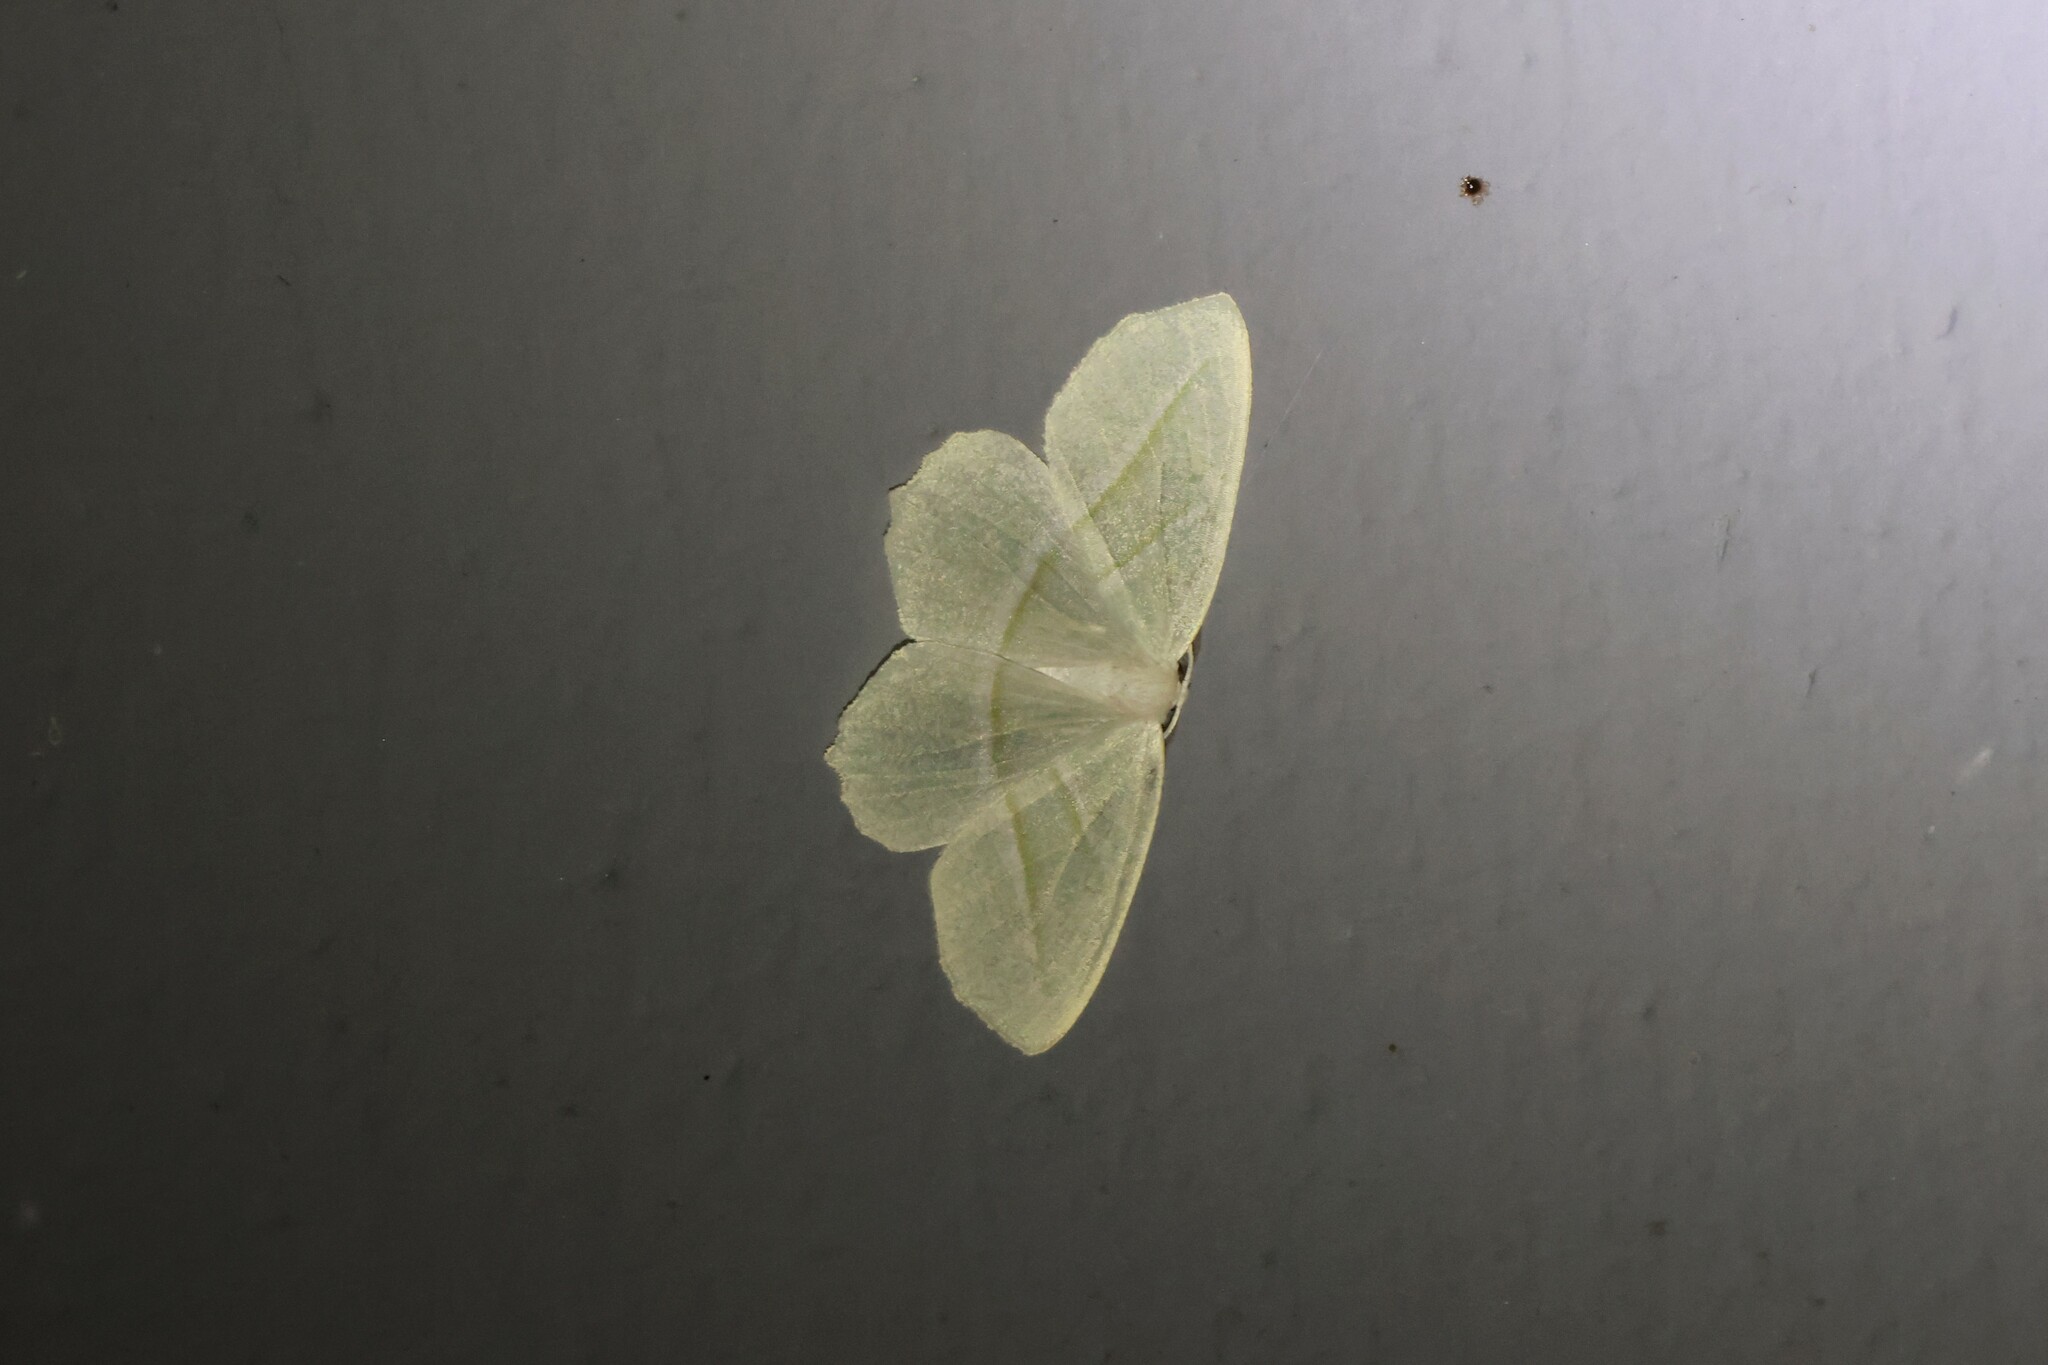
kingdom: Animalia
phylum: Arthropoda
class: Insecta
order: Lepidoptera
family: Geometridae
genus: Campaea
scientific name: Campaea perlata
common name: Fringed looper
